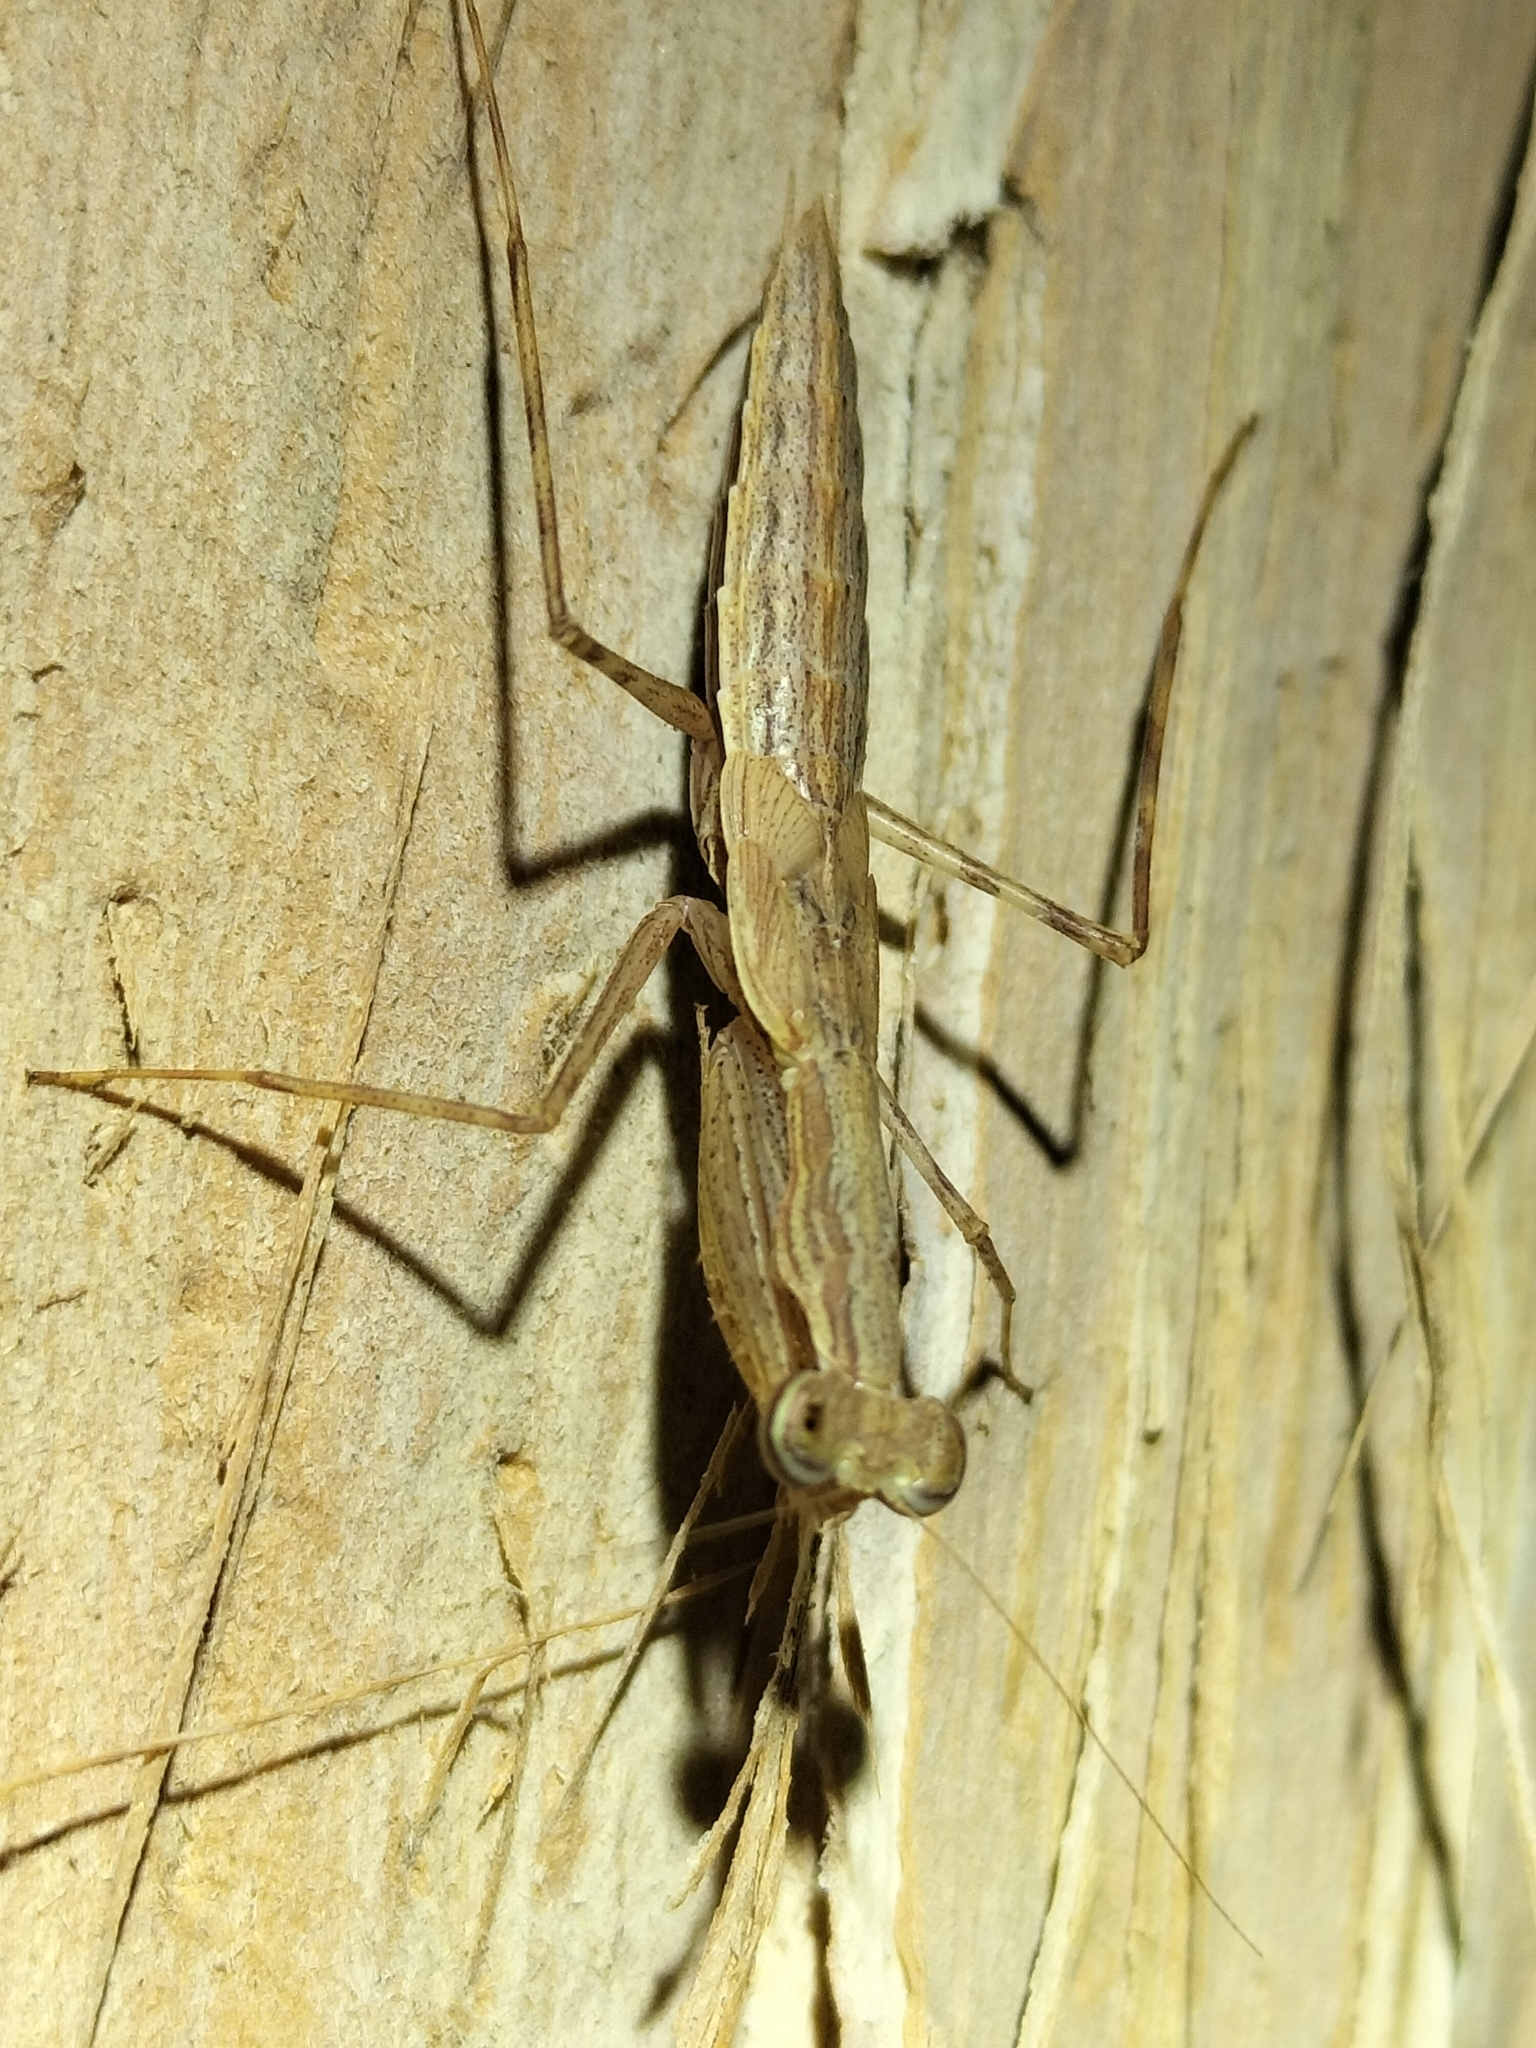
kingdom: Animalia
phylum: Arthropoda
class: Insecta
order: Mantodea
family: Nanomantidae
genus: Ima
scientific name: Ima fusca
